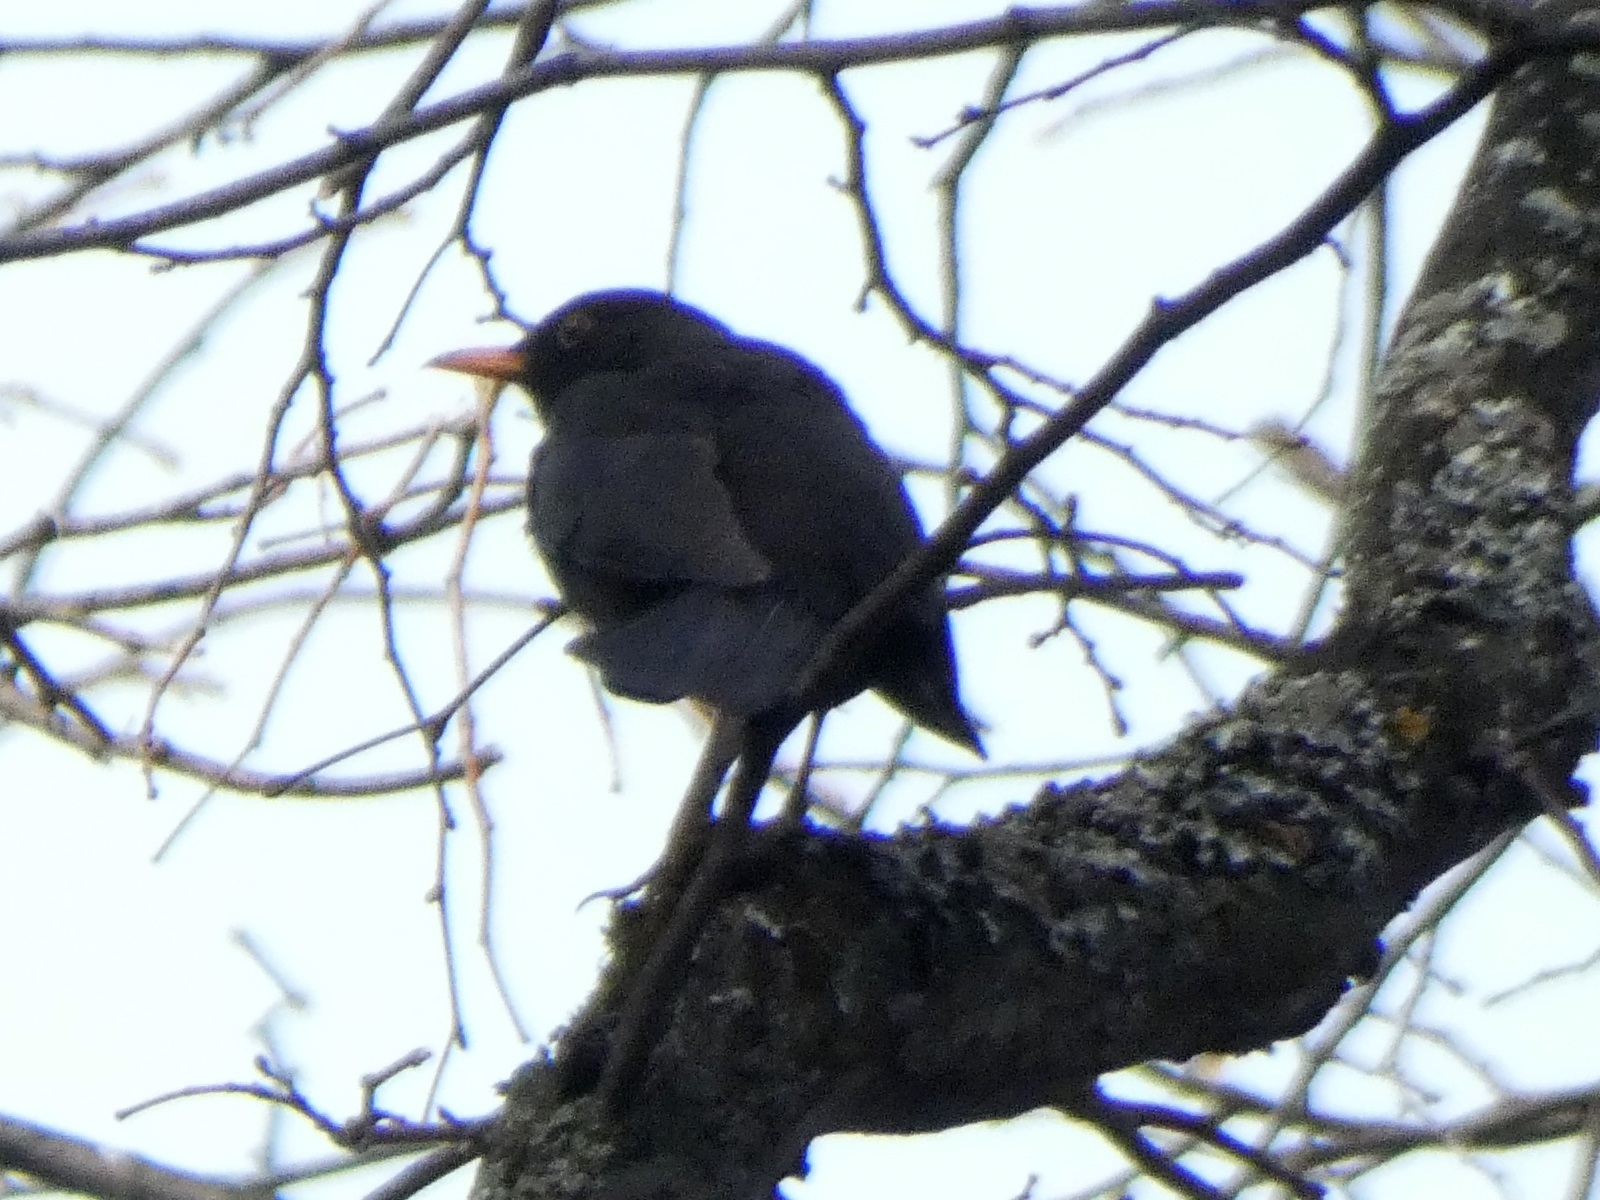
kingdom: Animalia
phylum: Chordata
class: Aves
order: Passeriformes
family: Turdidae
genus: Turdus
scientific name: Turdus merula
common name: Common blackbird
